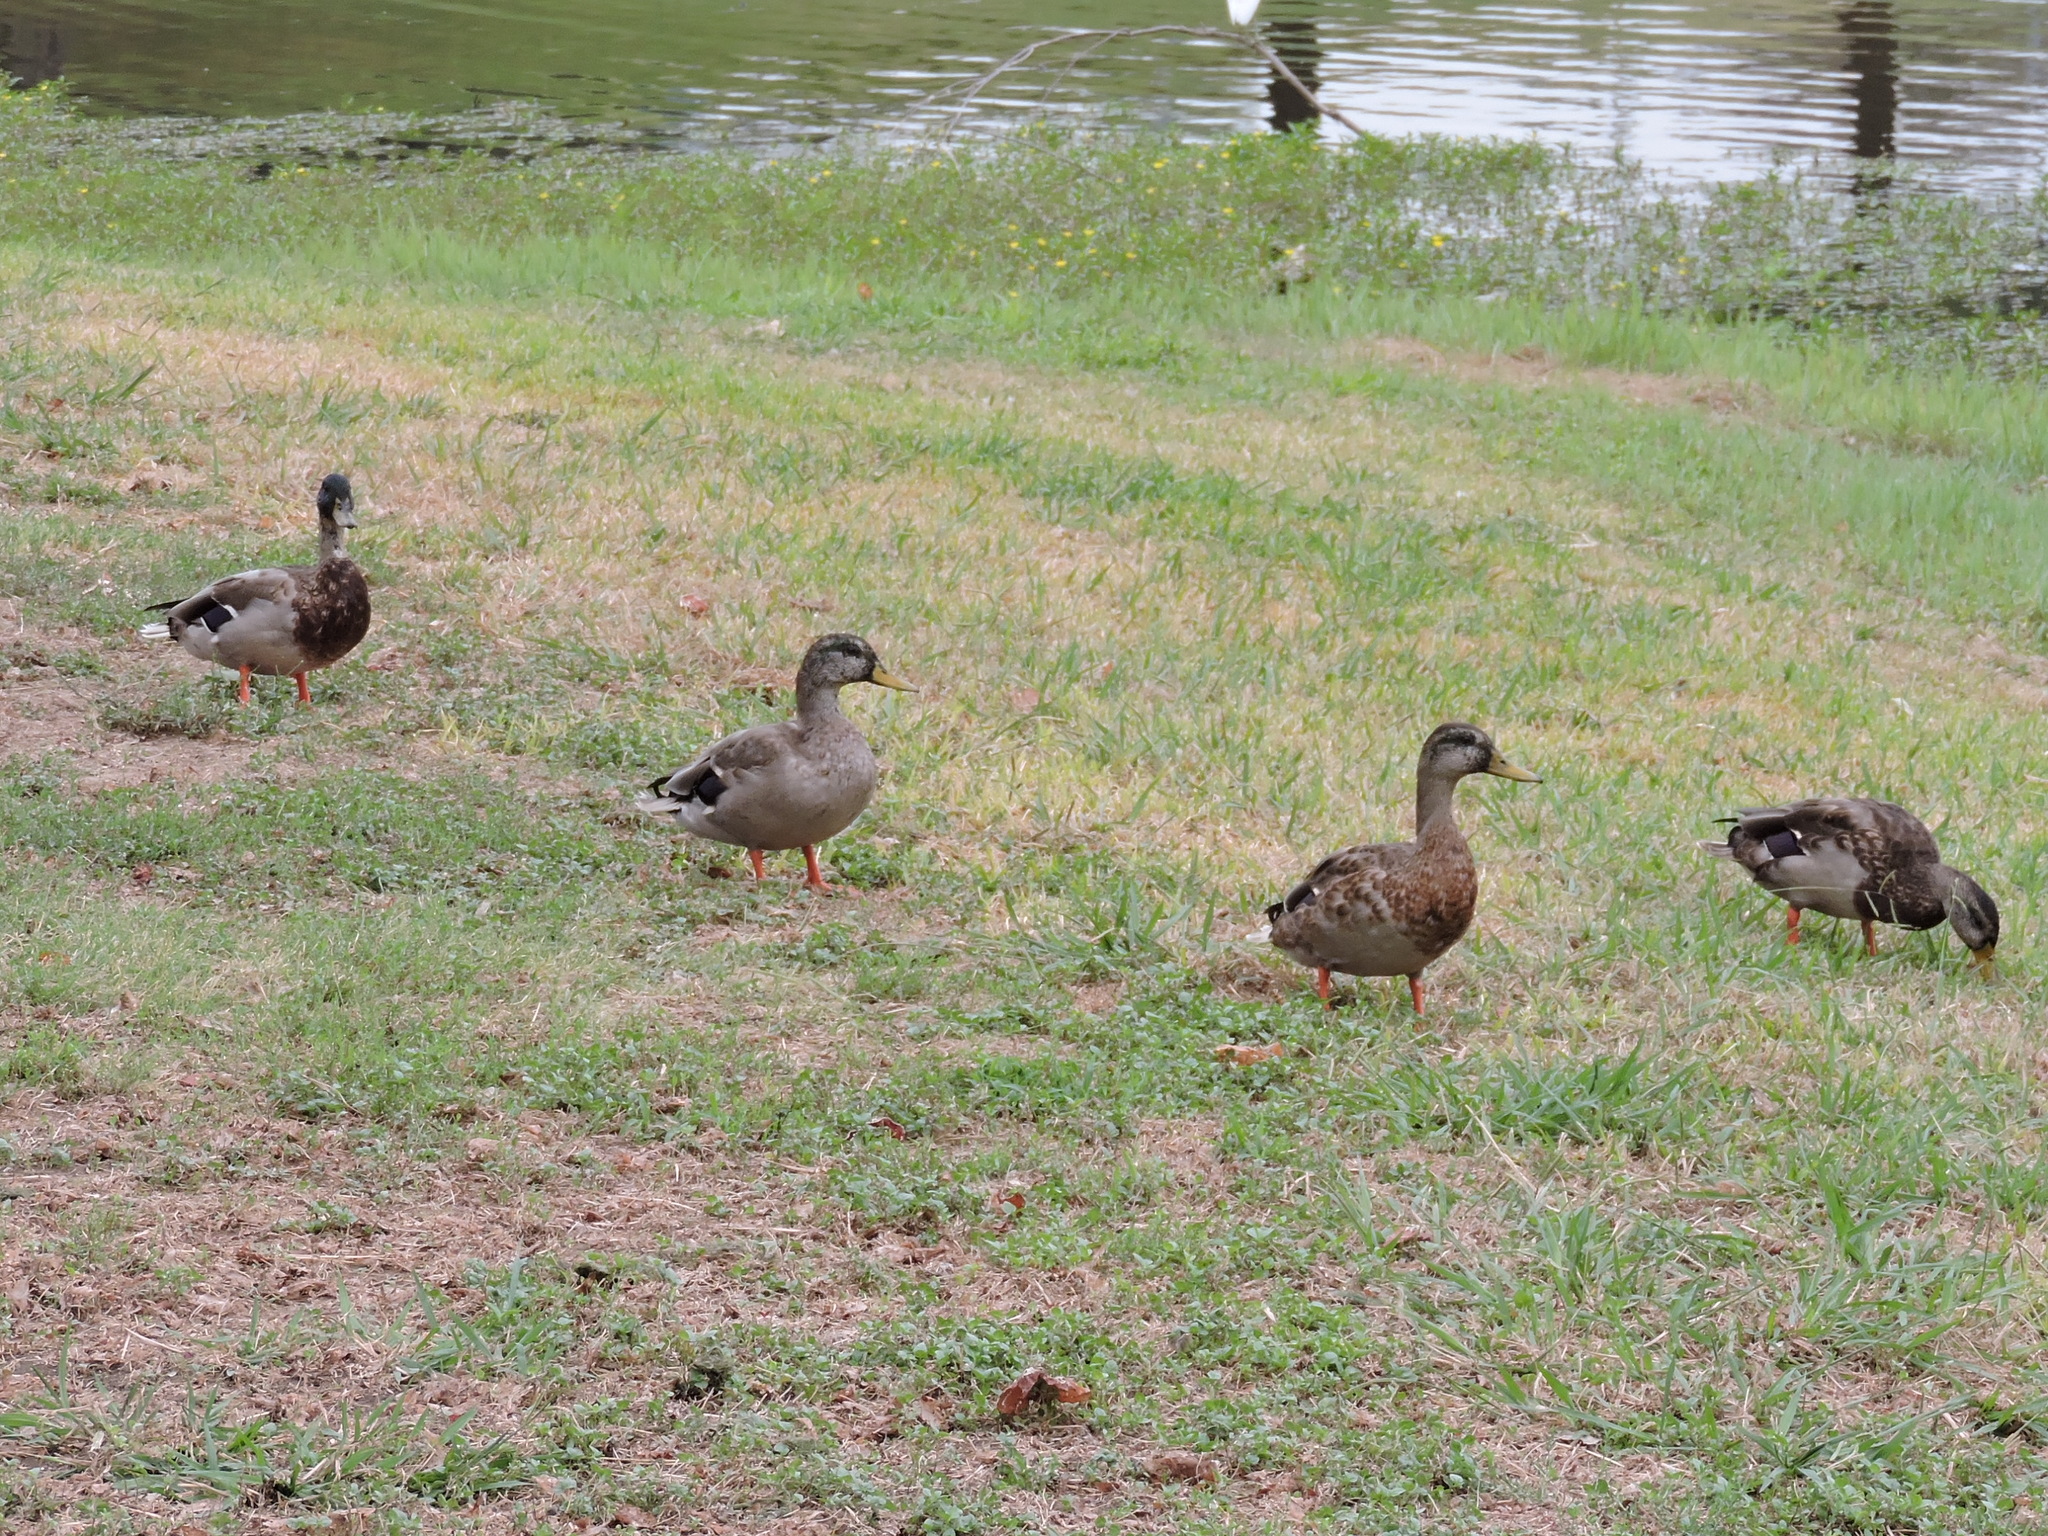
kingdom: Animalia
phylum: Chordata
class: Aves
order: Anseriformes
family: Anatidae
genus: Anas
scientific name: Anas platyrhynchos
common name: Mallard
